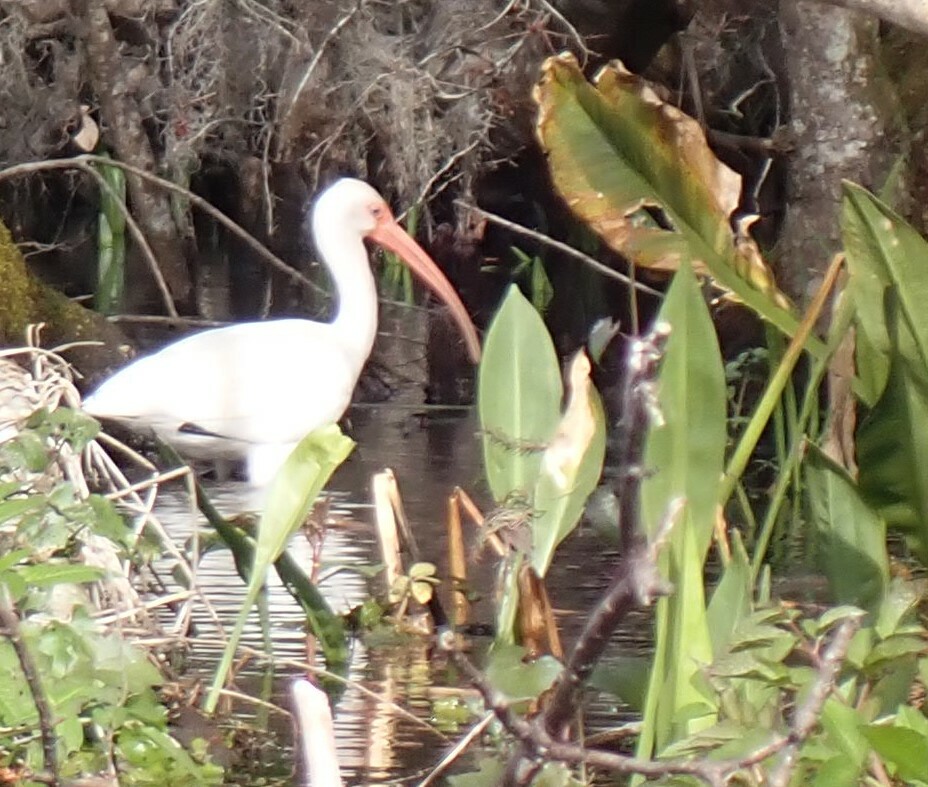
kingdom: Animalia
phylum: Chordata
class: Aves
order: Pelecaniformes
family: Threskiornithidae
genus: Eudocimus
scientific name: Eudocimus albus
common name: White ibis
